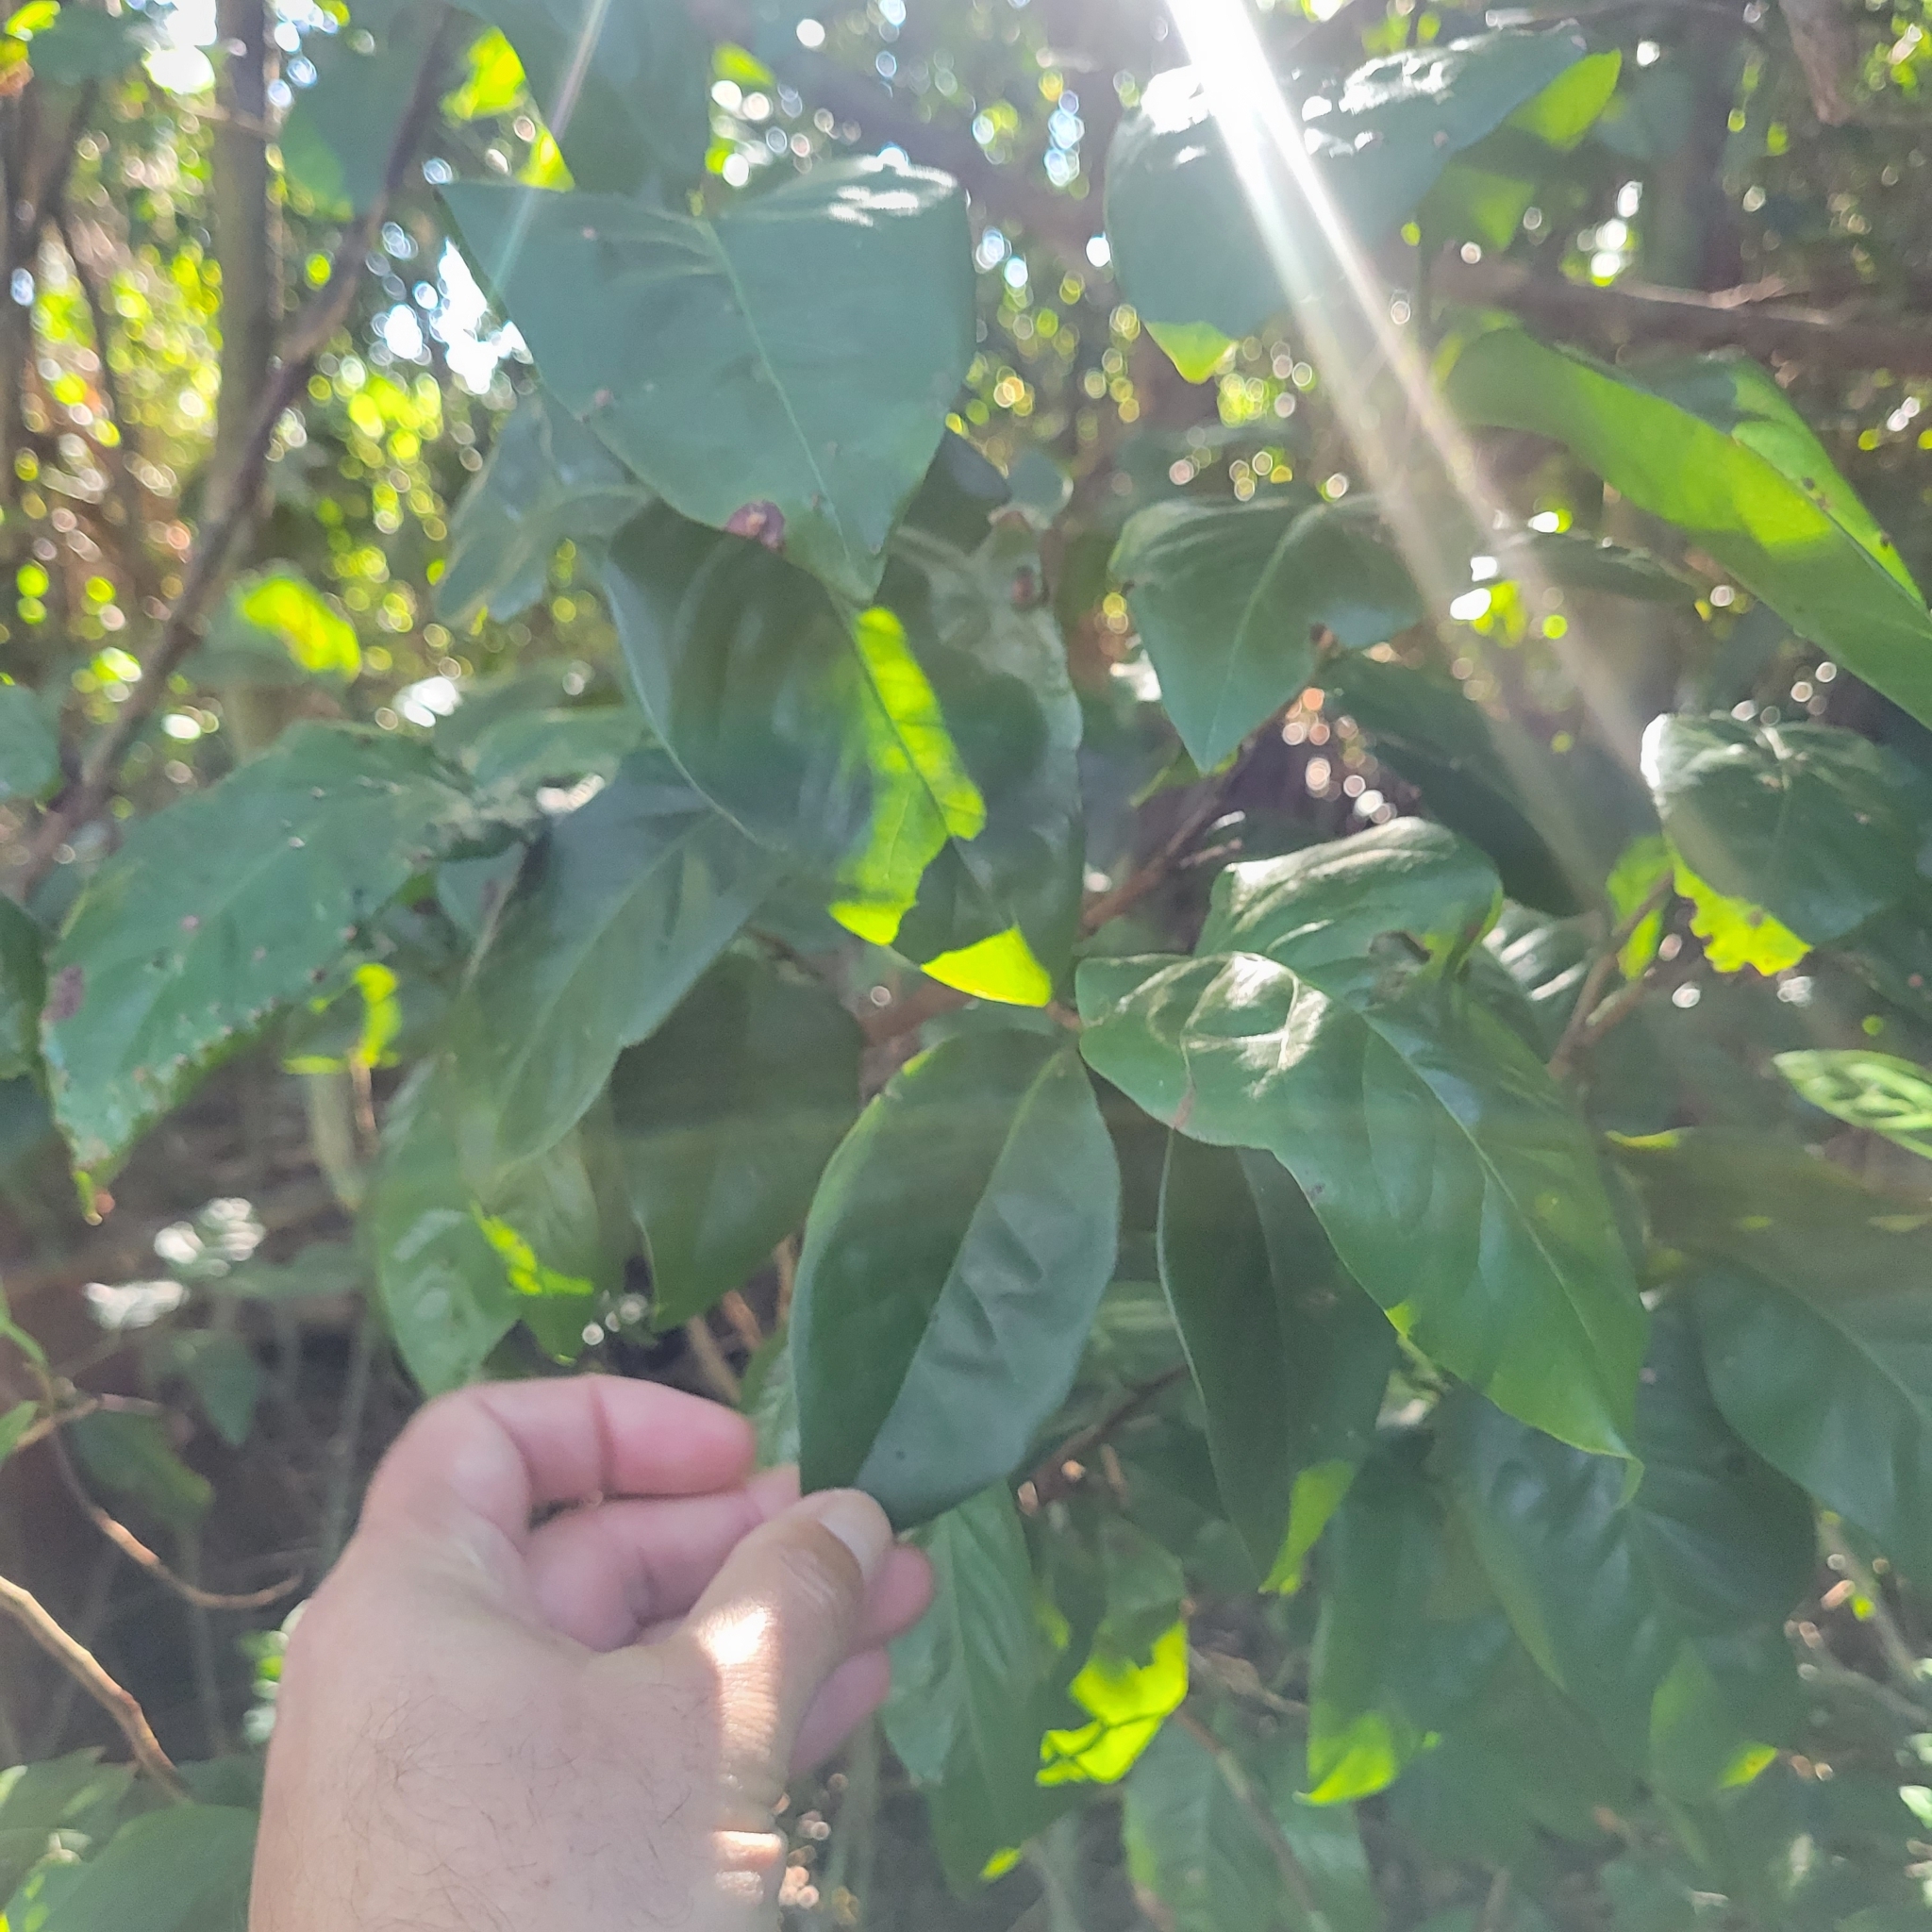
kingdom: Plantae
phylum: Tracheophyta
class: Magnoliopsida
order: Caryophyllales
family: Polygonaceae
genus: Coccoloba
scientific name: Coccoloba diversifolia
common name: Pigeon-plum
